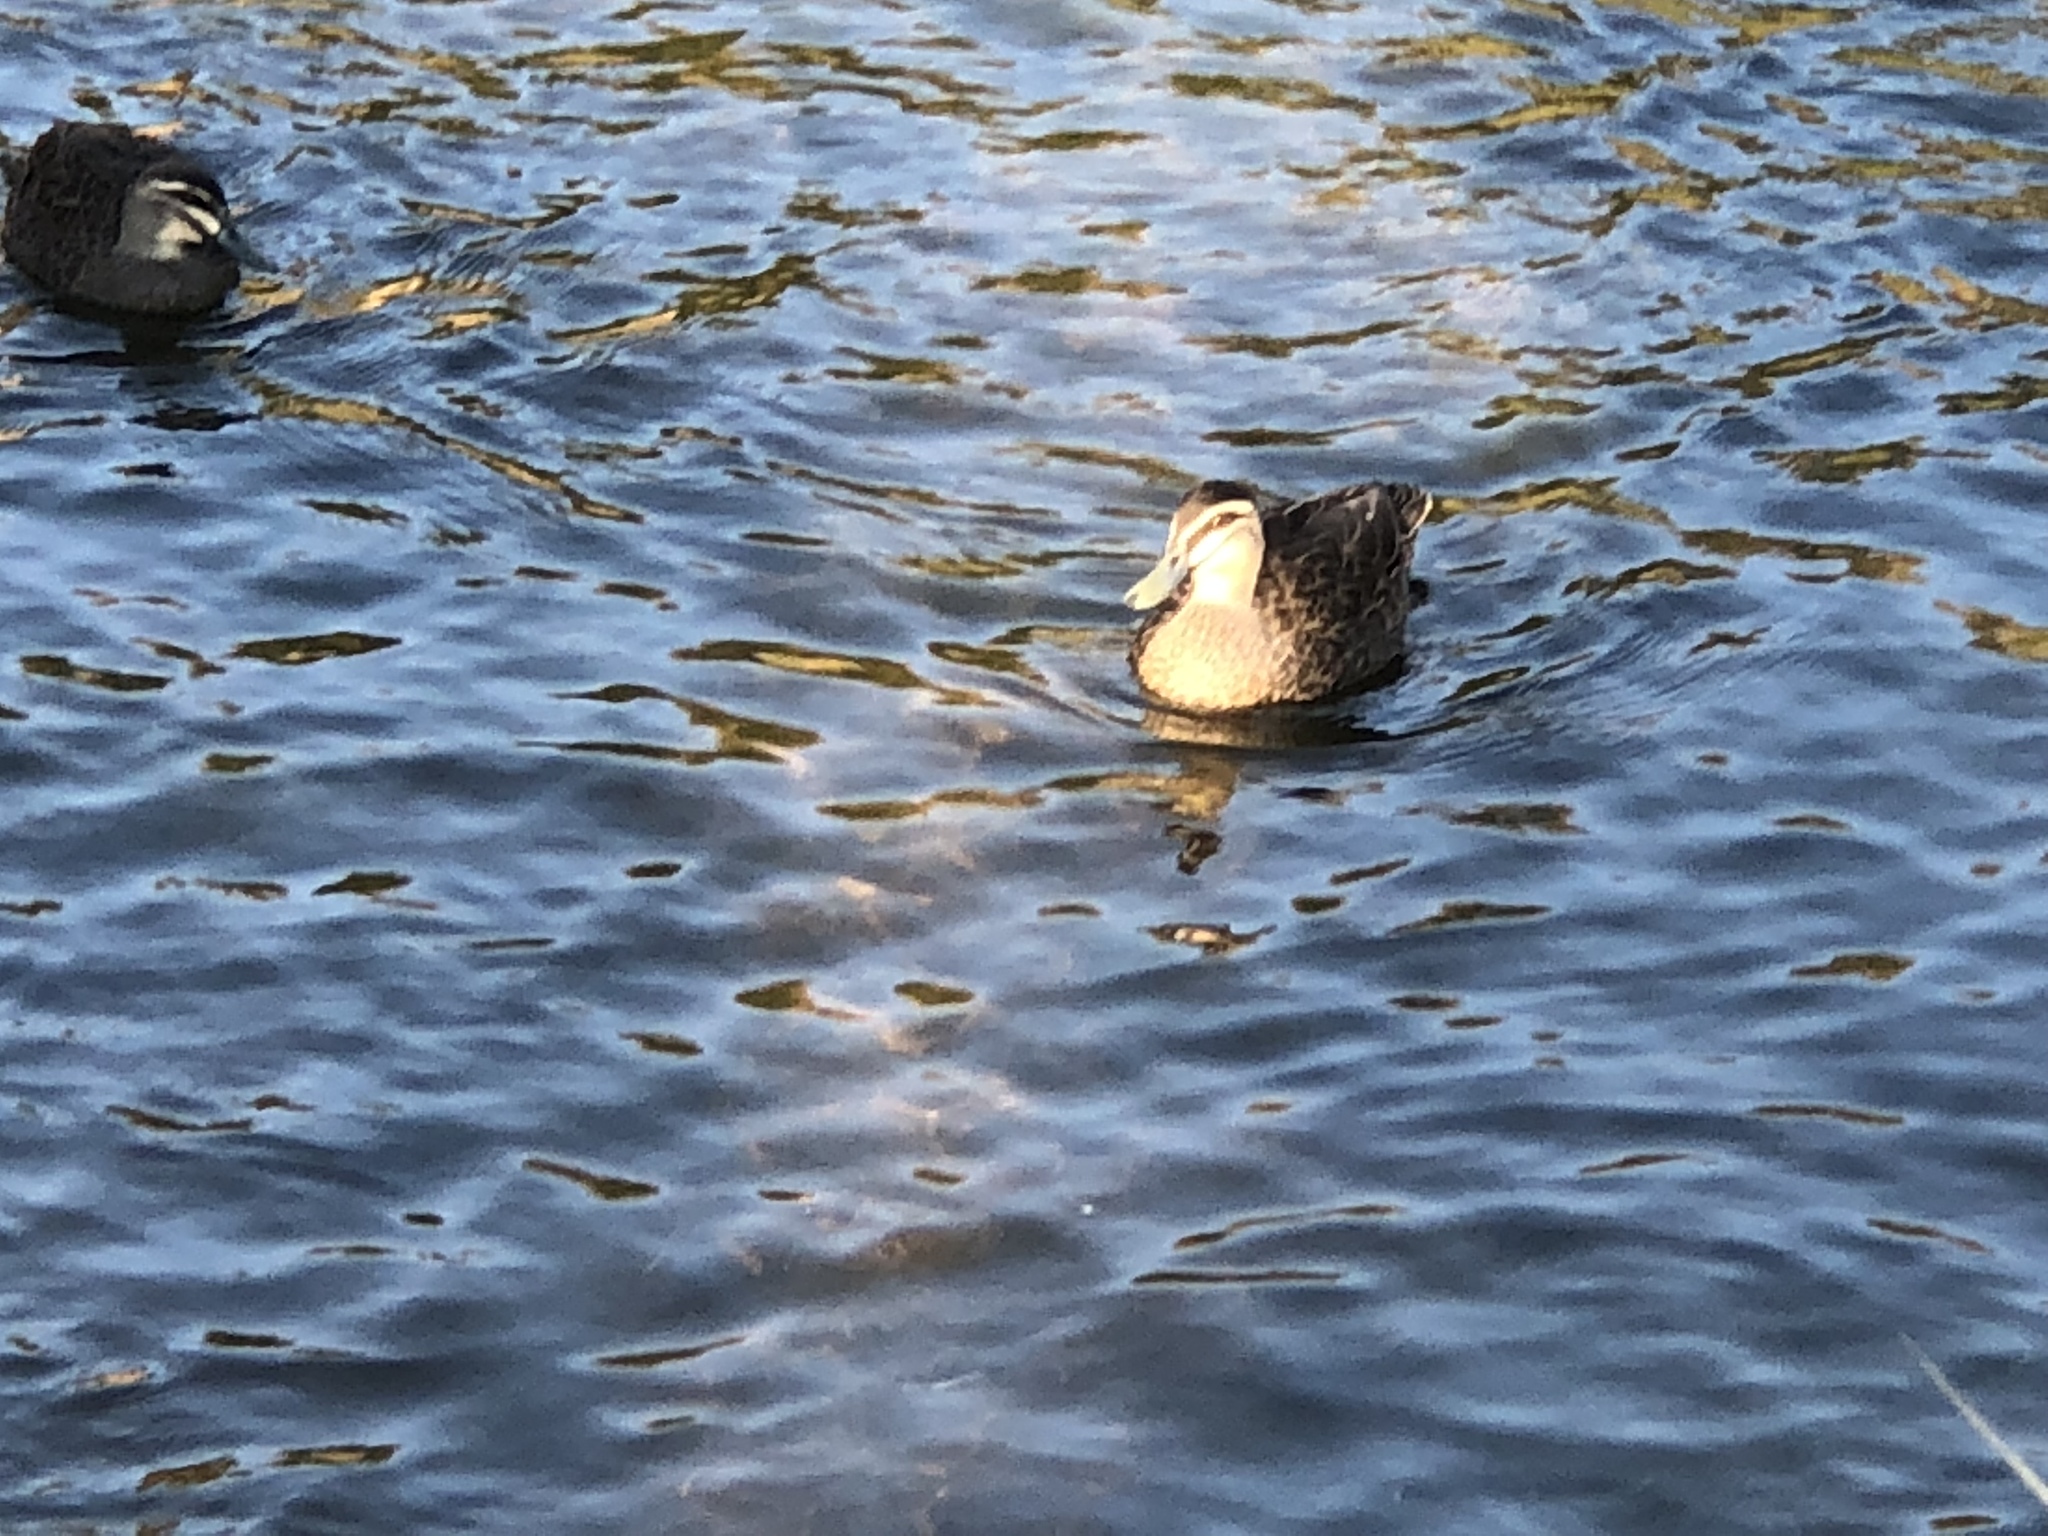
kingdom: Animalia
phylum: Chordata
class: Aves
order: Anseriformes
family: Anatidae
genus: Anas
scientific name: Anas superciliosa
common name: Pacific black duck
